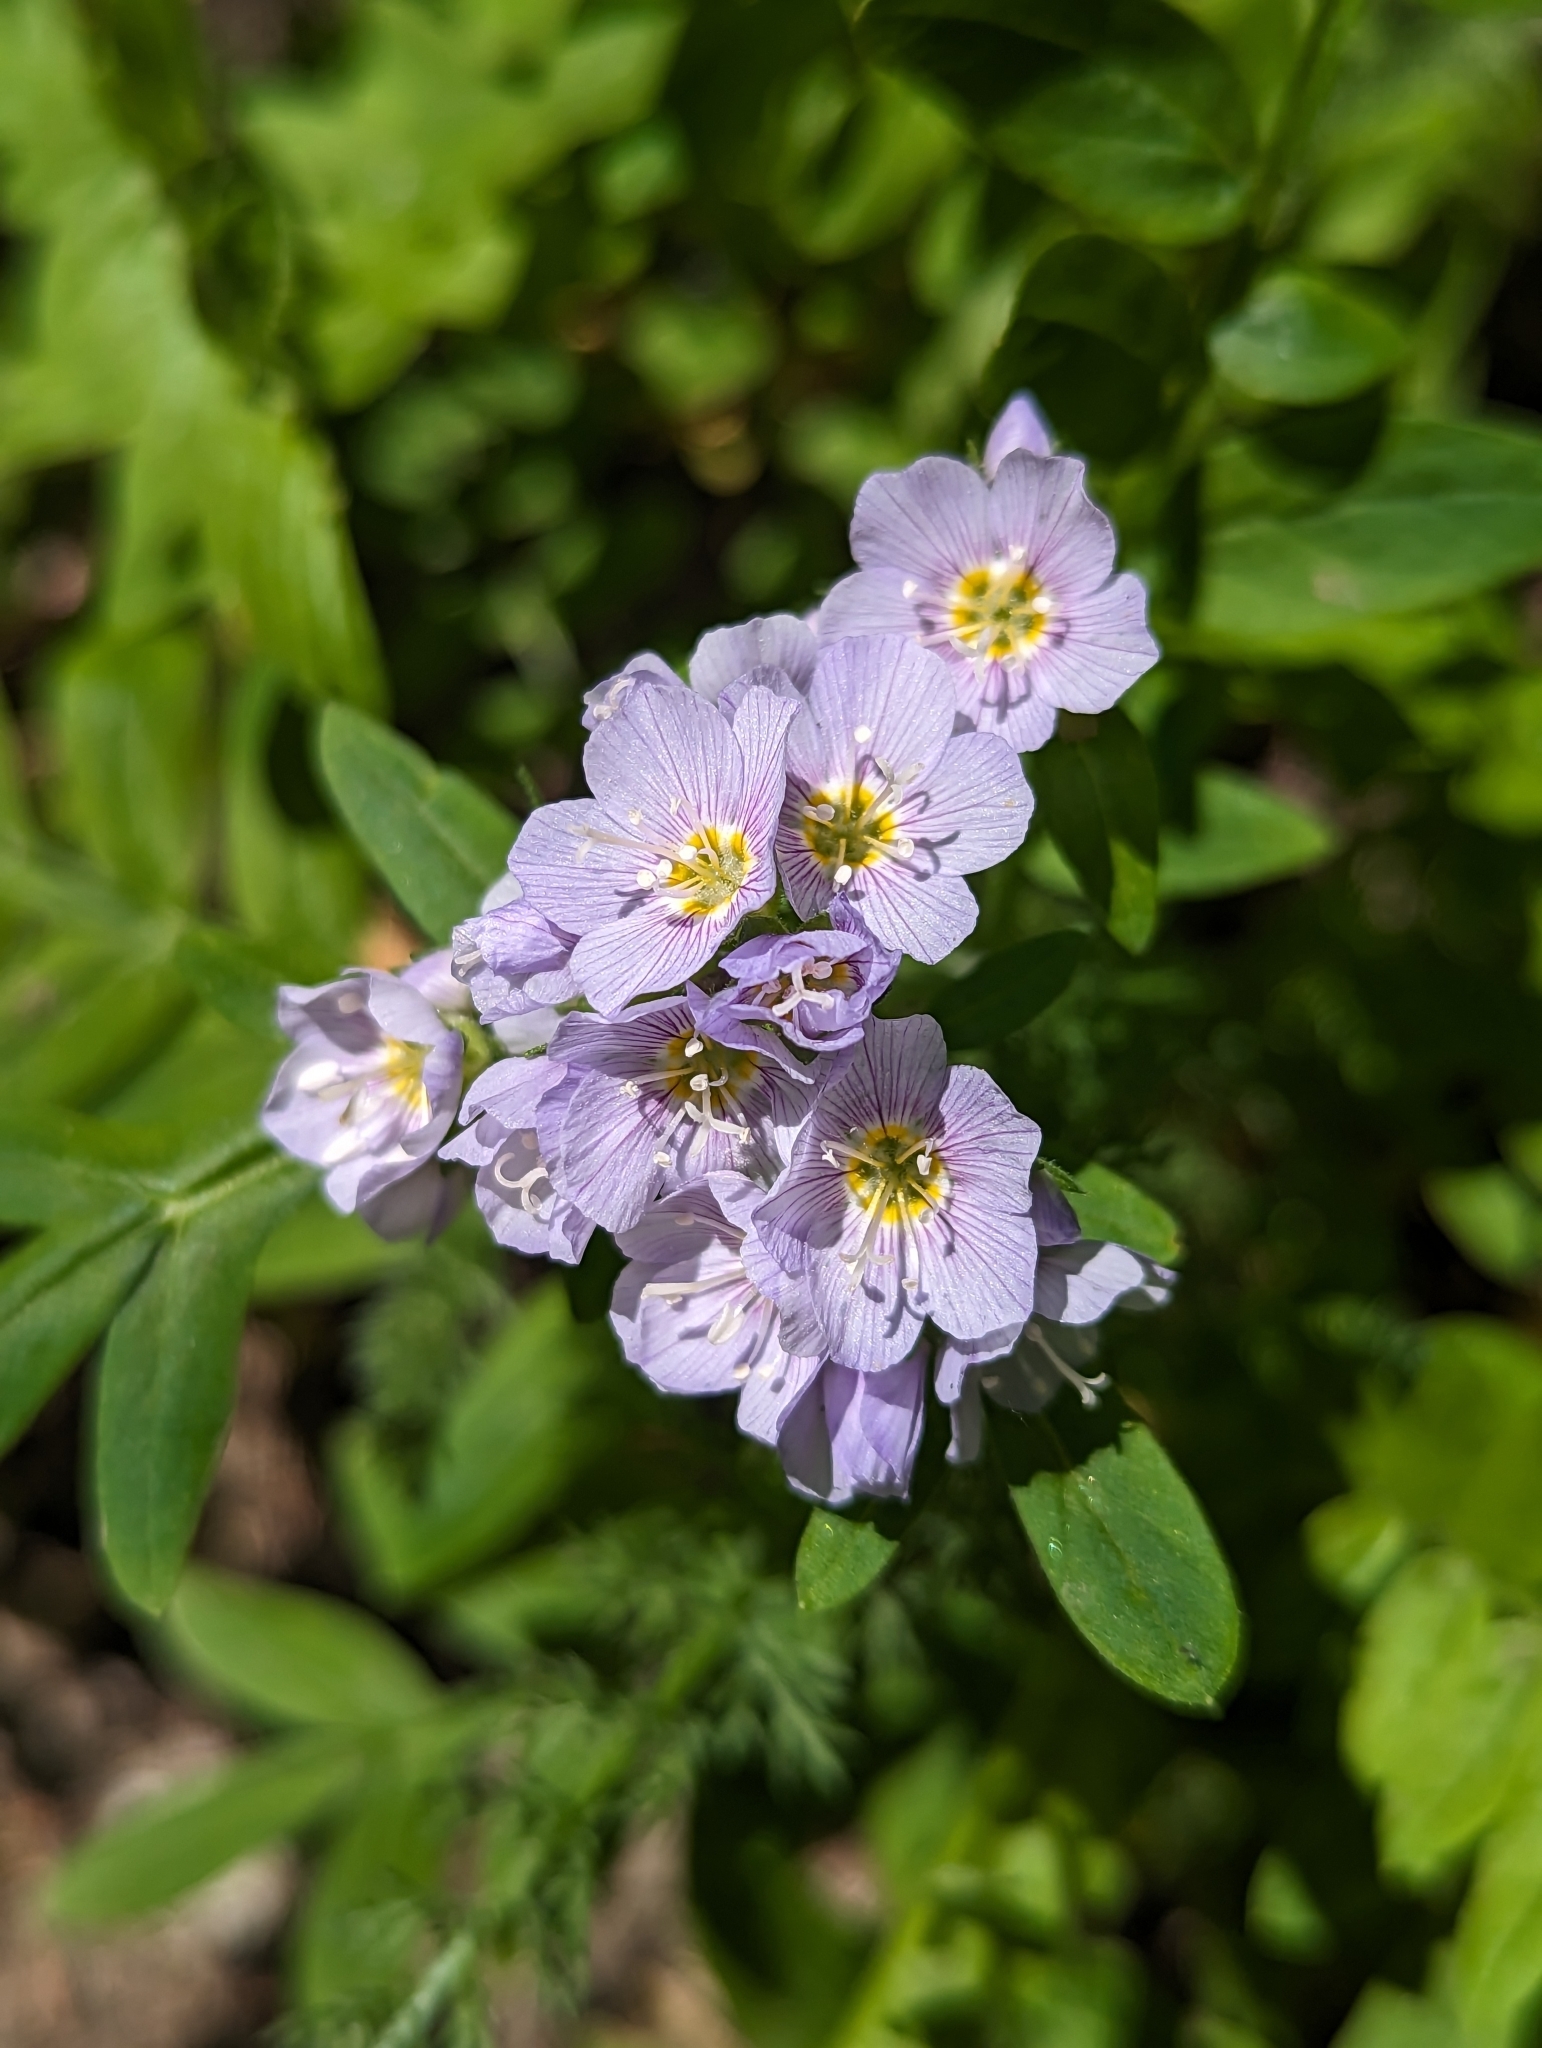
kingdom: Plantae
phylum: Tracheophyta
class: Magnoliopsida
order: Ericales
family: Polemoniaceae
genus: Polemonium
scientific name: Polemonium californicum
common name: California jacob's ladder
